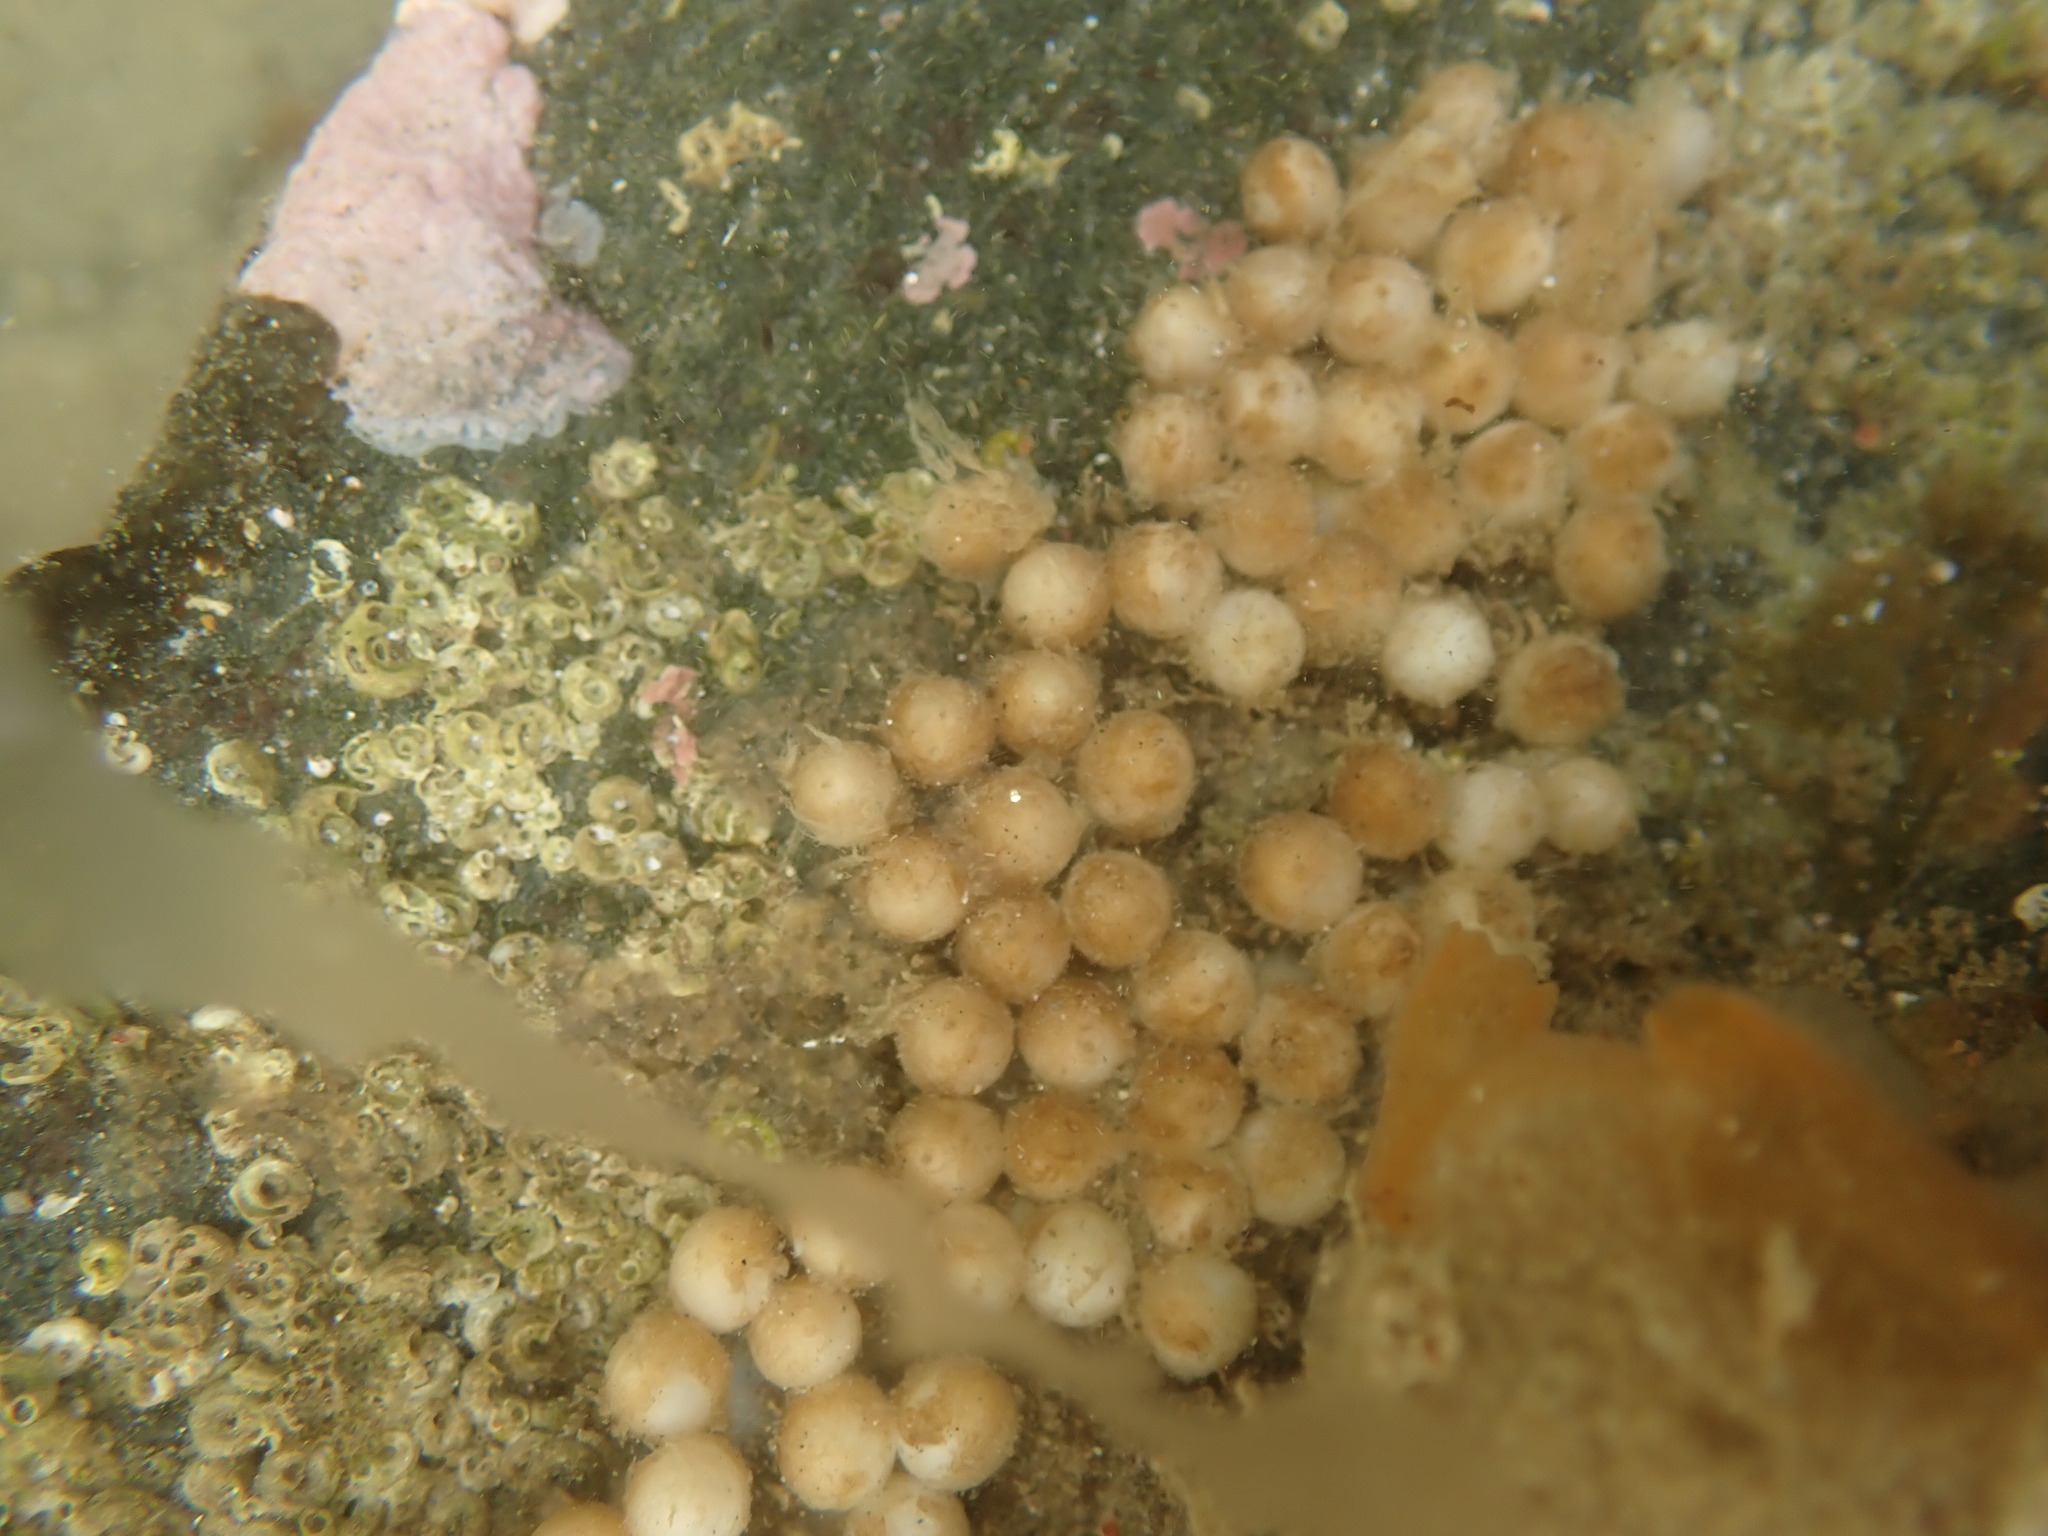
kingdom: Animalia
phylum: Mollusca
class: Cephalopoda
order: Sepiida
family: Sepiadariidae
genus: Sepioloidea
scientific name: Sepioloidea pacifica
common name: Pacific bobtail squid
